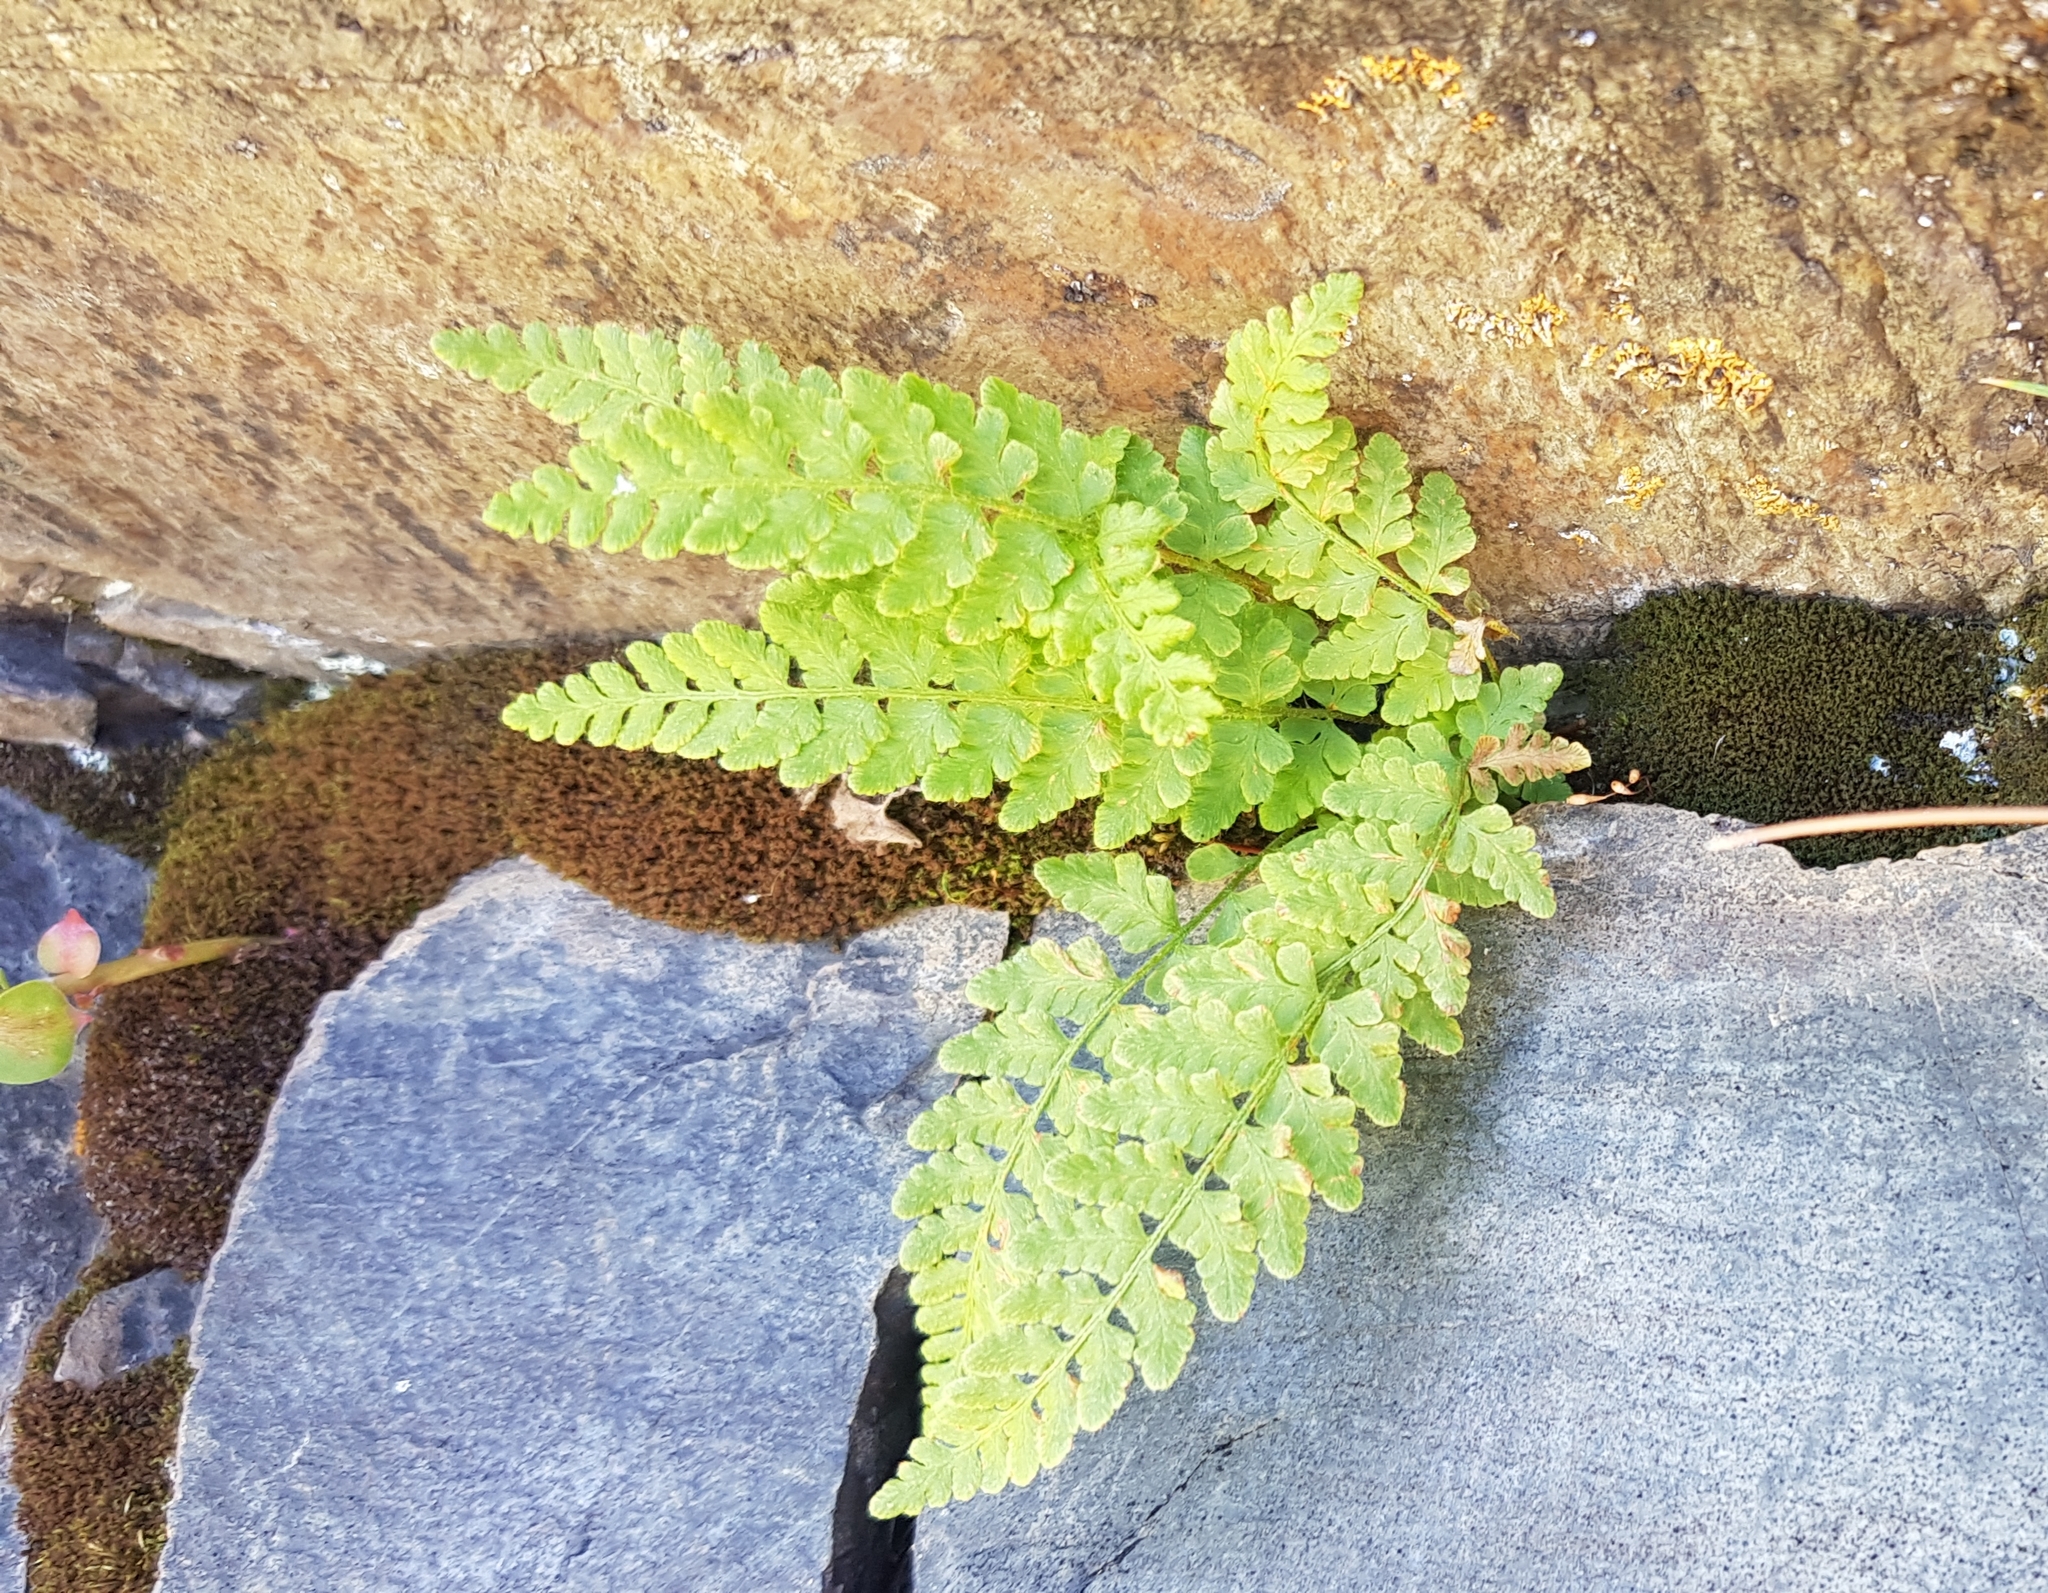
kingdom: Plantae
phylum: Tracheophyta
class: Polypodiopsida
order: Polypodiales
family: Woodsiaceae
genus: Woodsia
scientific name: Woodsia ilvensis
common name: Fragrant woodsia
